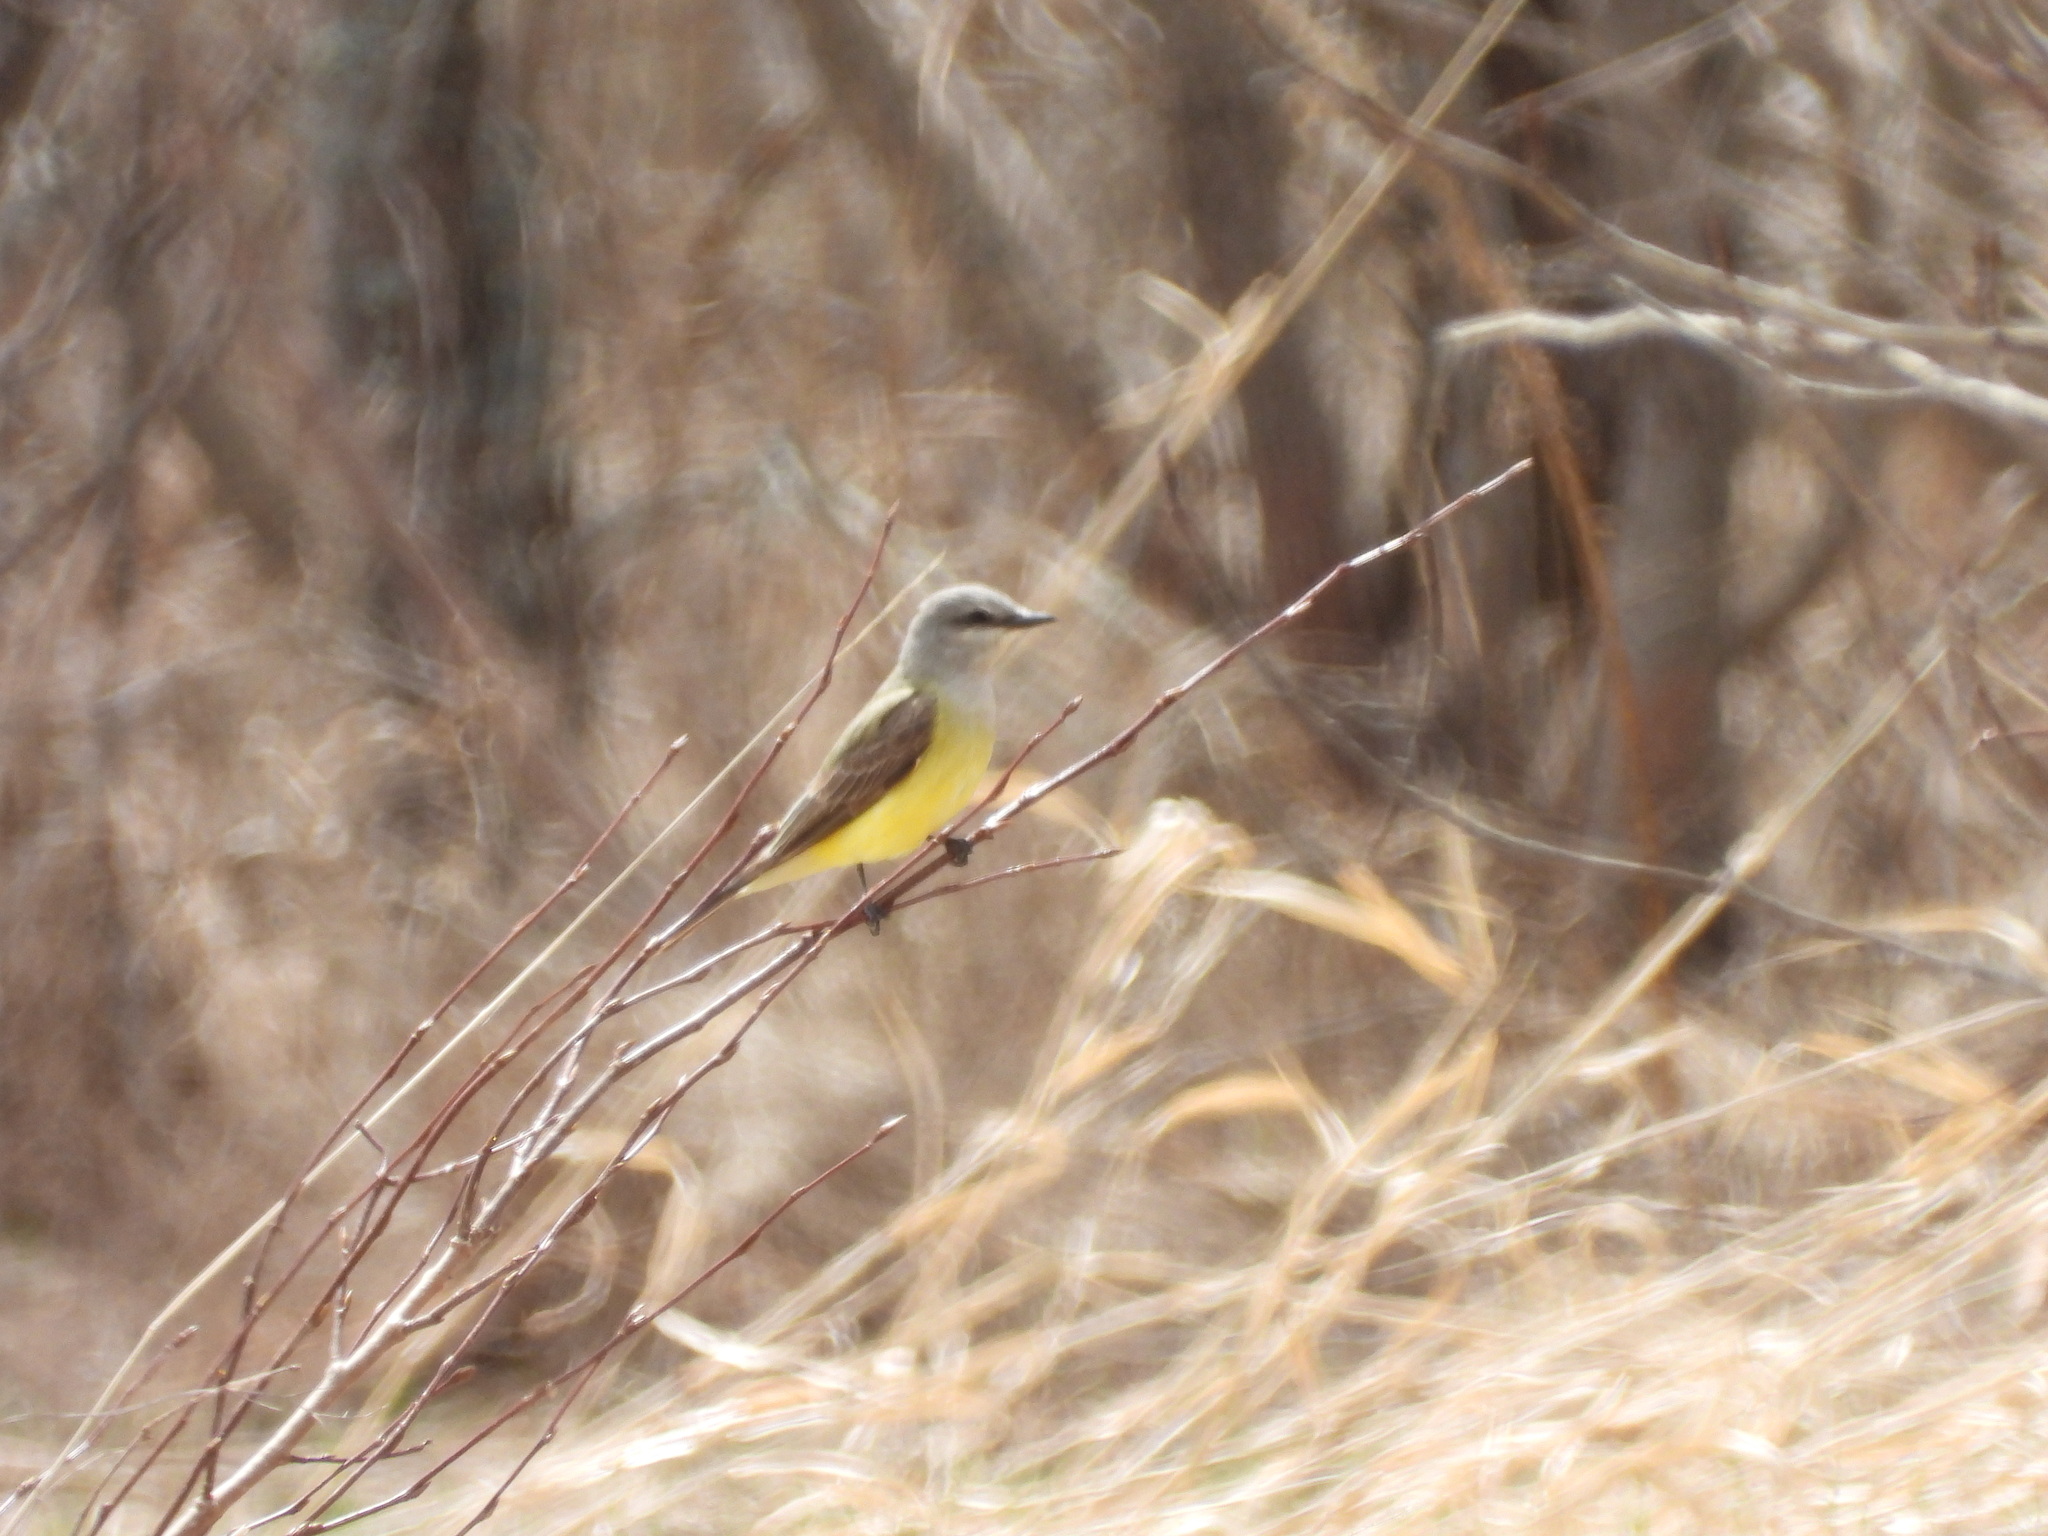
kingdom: Animalia
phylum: Chordata
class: Aves
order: Passeriformes
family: Tyrannidae
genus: Tyrannus
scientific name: Tyrannus verticalis
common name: Western kingbird
